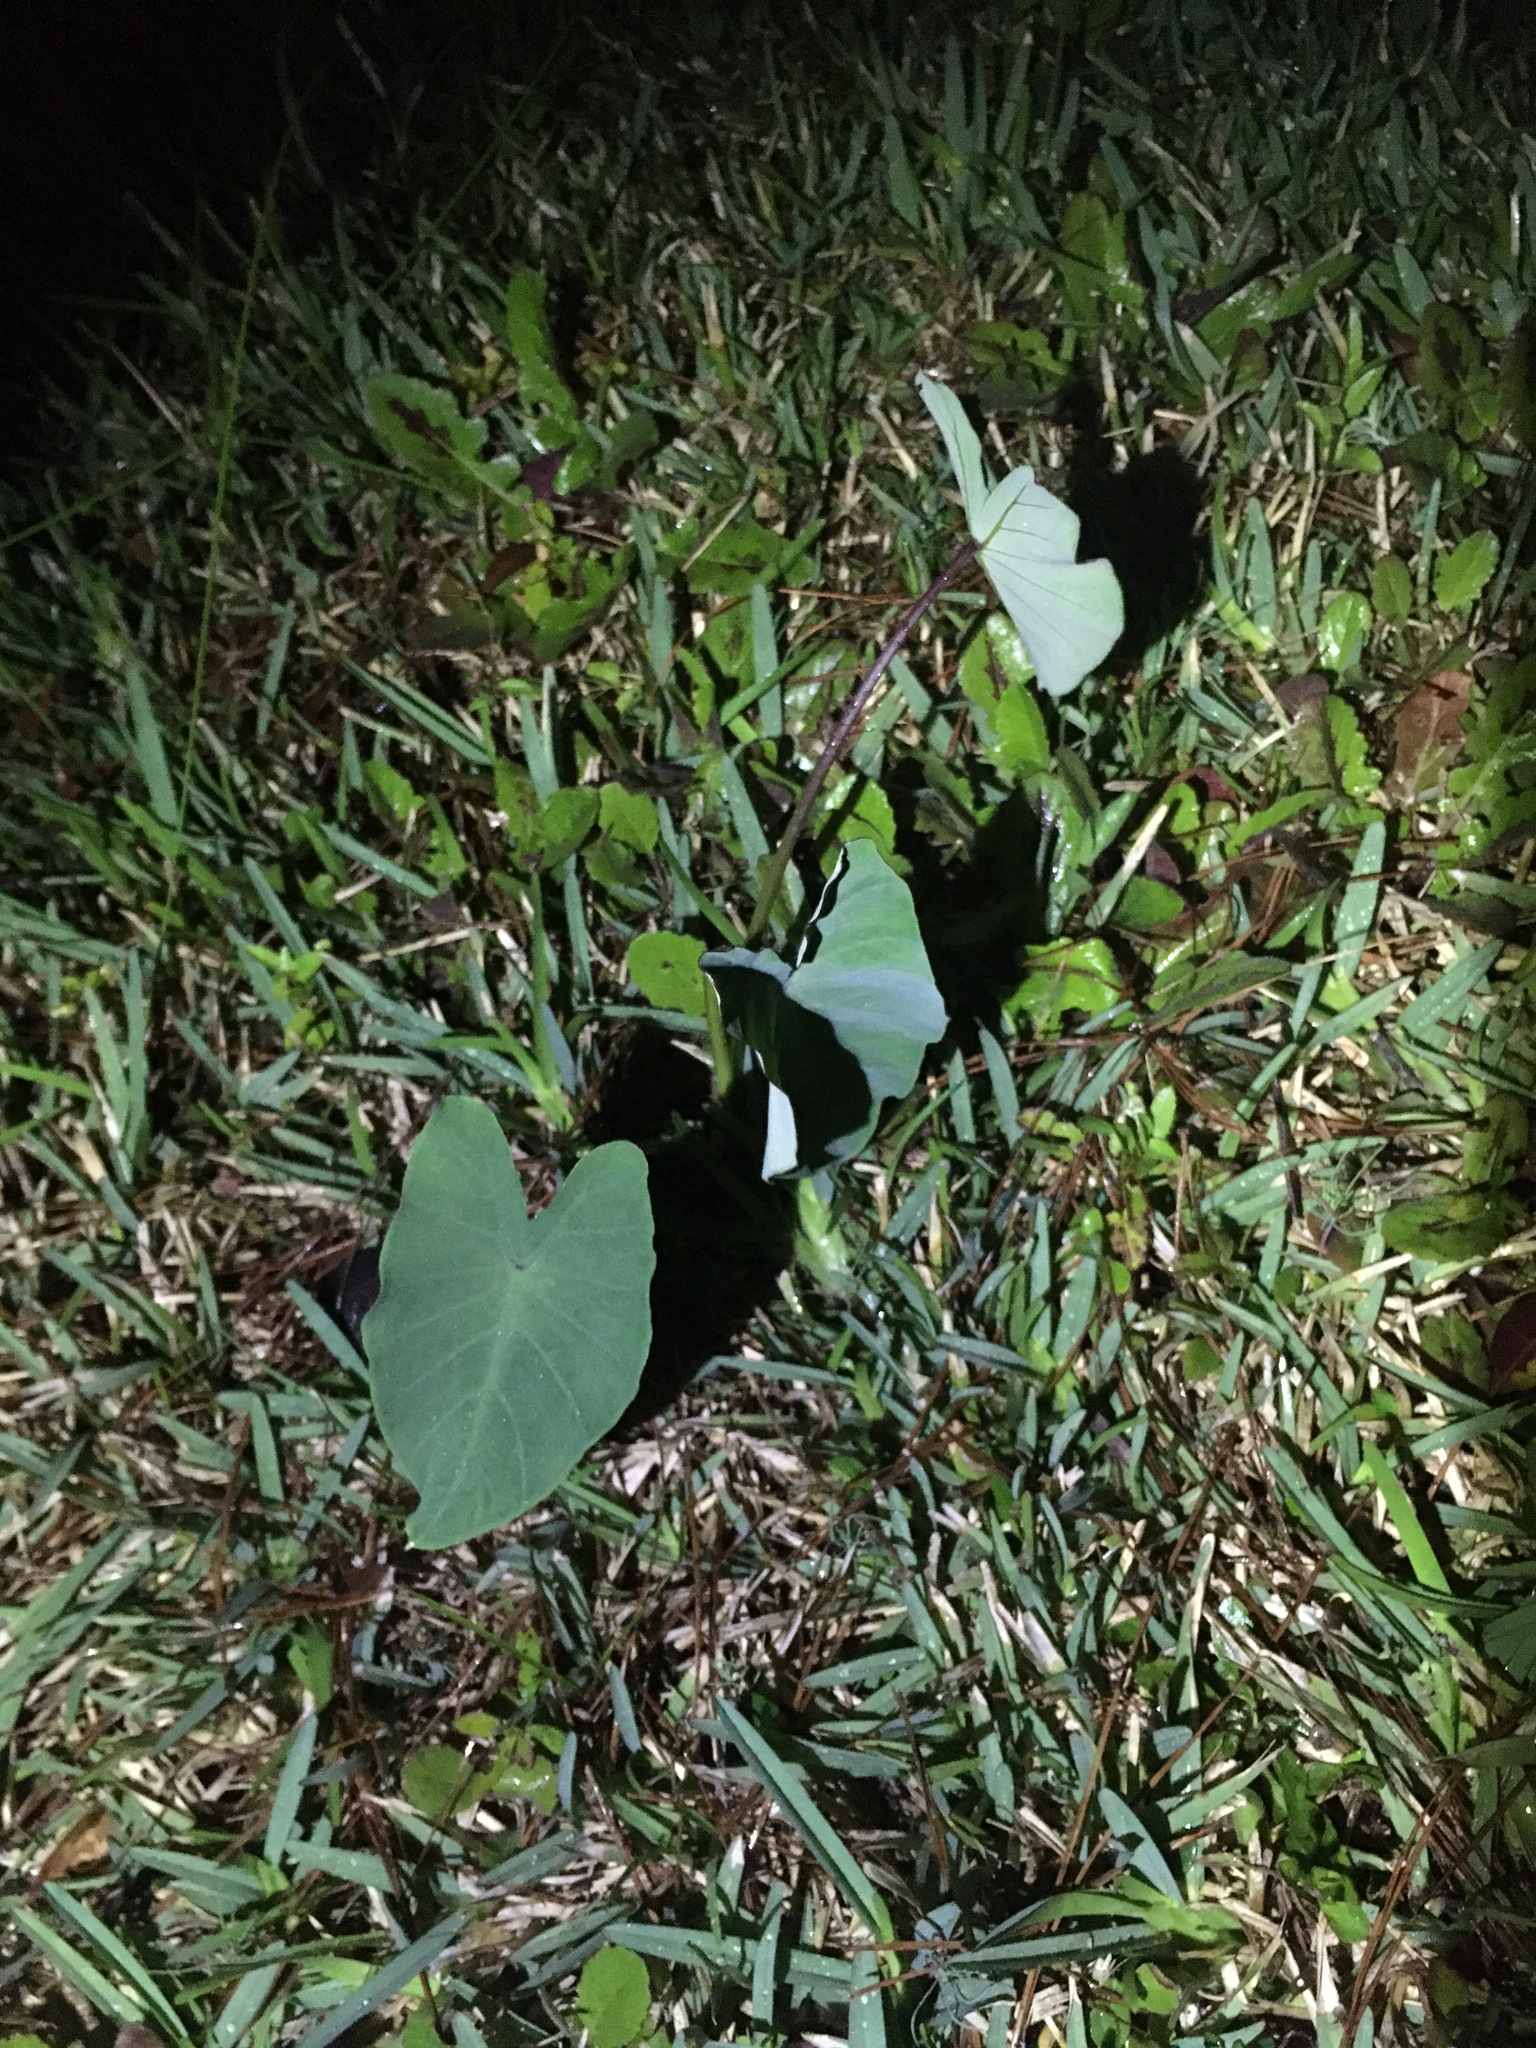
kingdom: Plantae
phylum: Tracheophyta
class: Liliopsida
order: Alismatales
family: Araceae
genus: Colocasia
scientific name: Colocasia esculenta
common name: Taro
